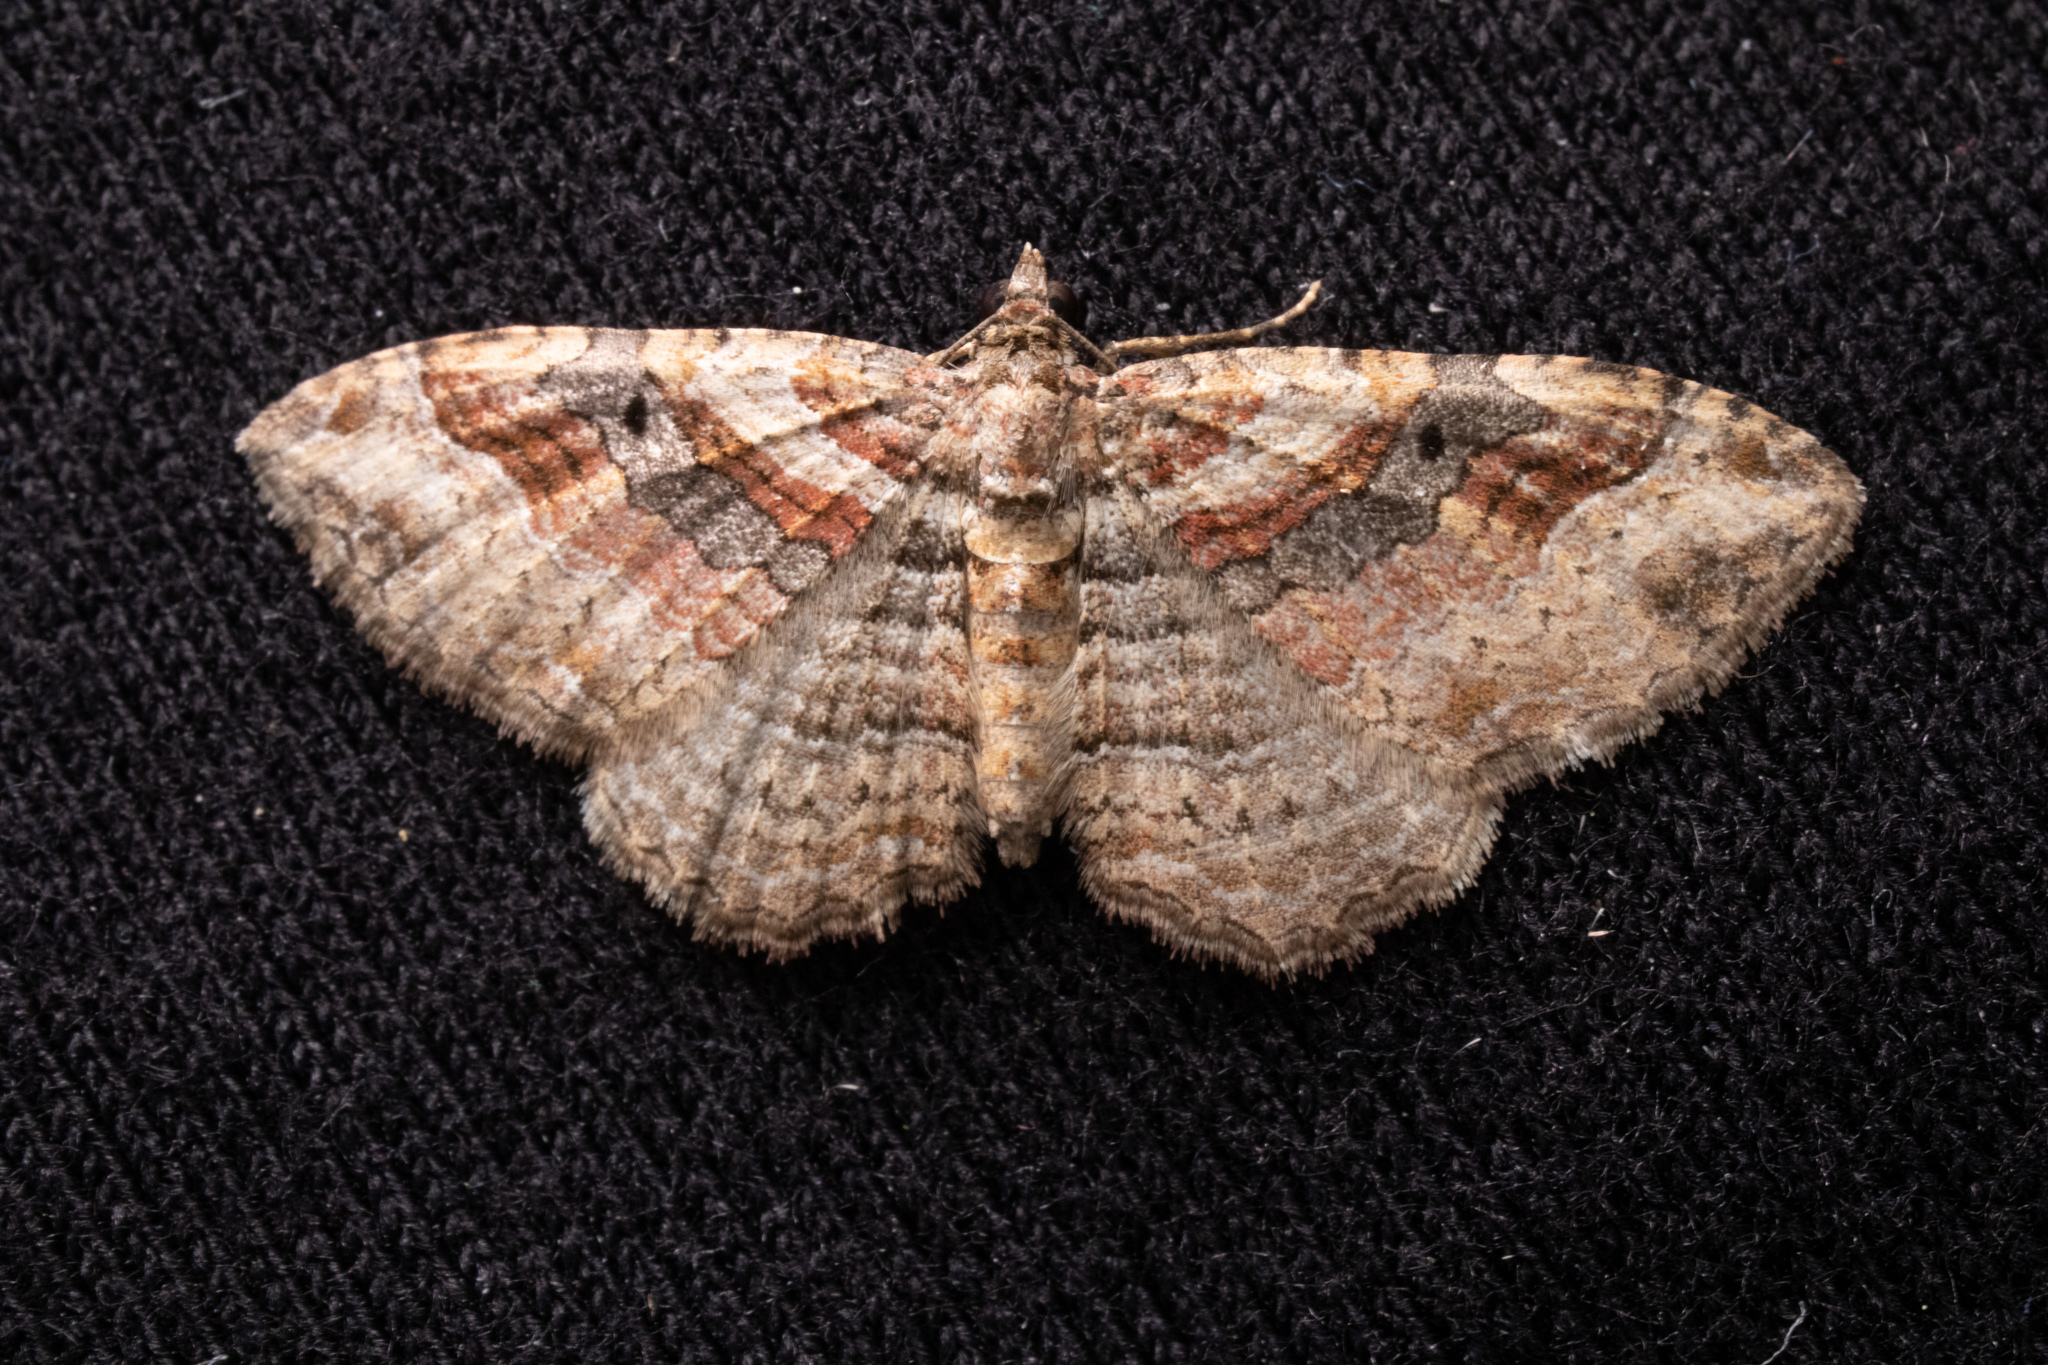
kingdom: Animalia
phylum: Arthropoda
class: Insecta
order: Lepidoptera
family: Geometridae
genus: Costaconvexa
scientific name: Costaconvexa centrostrigaria
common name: Bent-line carpet
